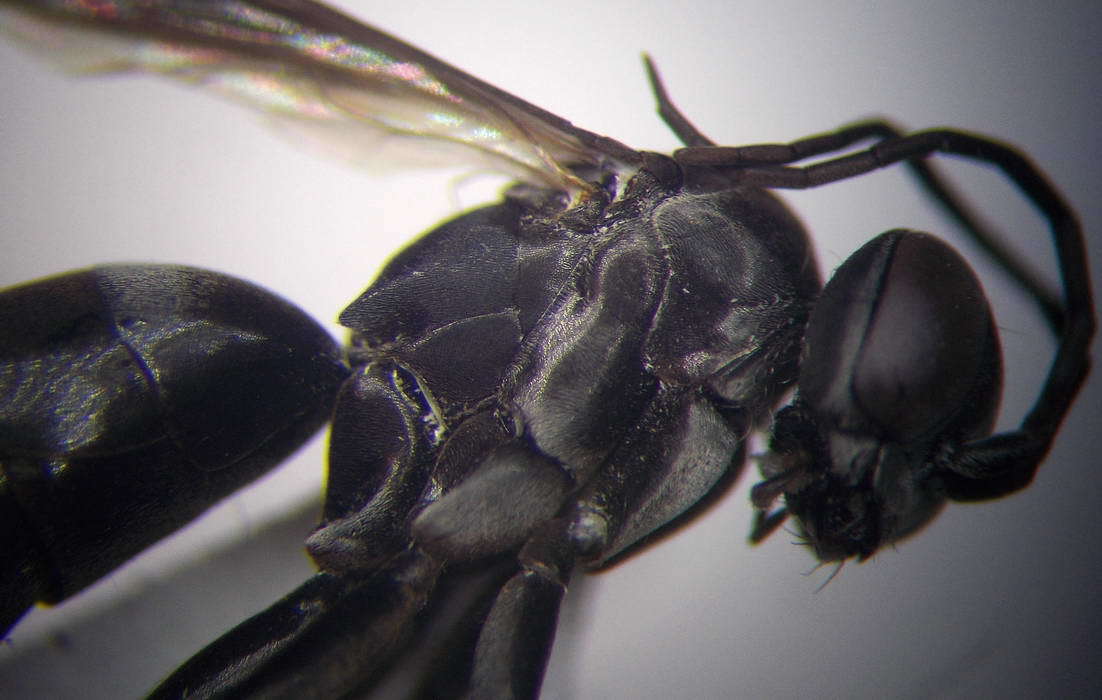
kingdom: Animalia
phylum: Arthropoda
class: Insecta
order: Hymenoptera
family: Pompilidae
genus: Aporinellus
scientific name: Aporinellus sexmaculatus
